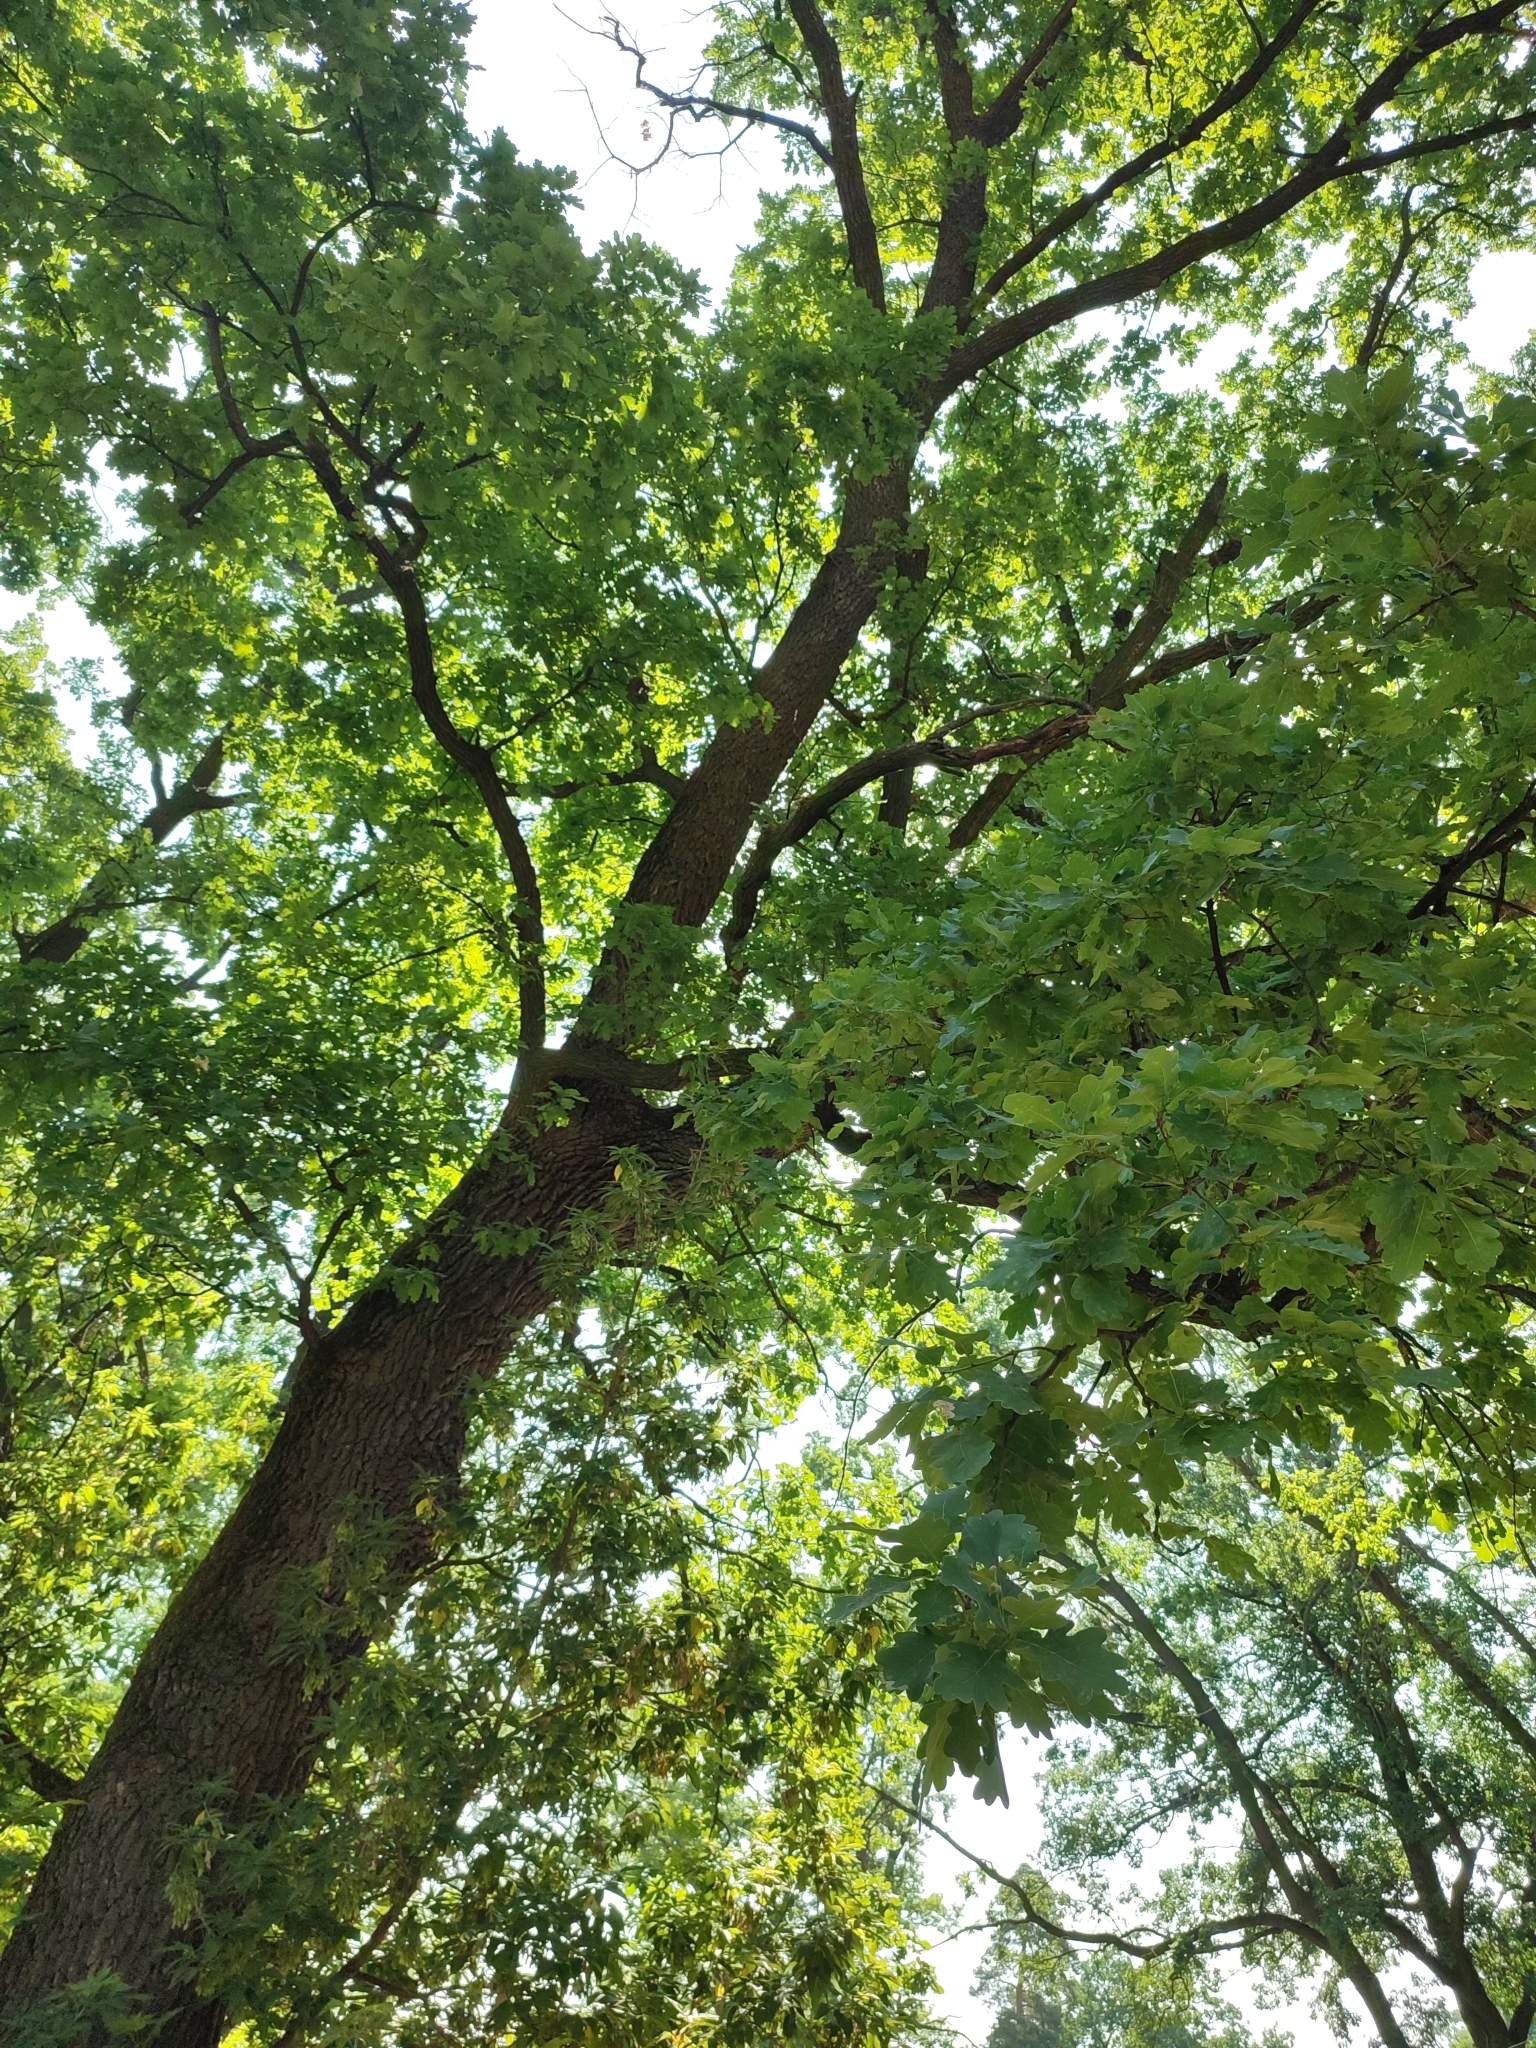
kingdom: Plantae
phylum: Tracheophyta
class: Magnoliopsida
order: Fagales
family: Fagaceae
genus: Quercus
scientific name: Quercus robur
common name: Pedunculate oak
